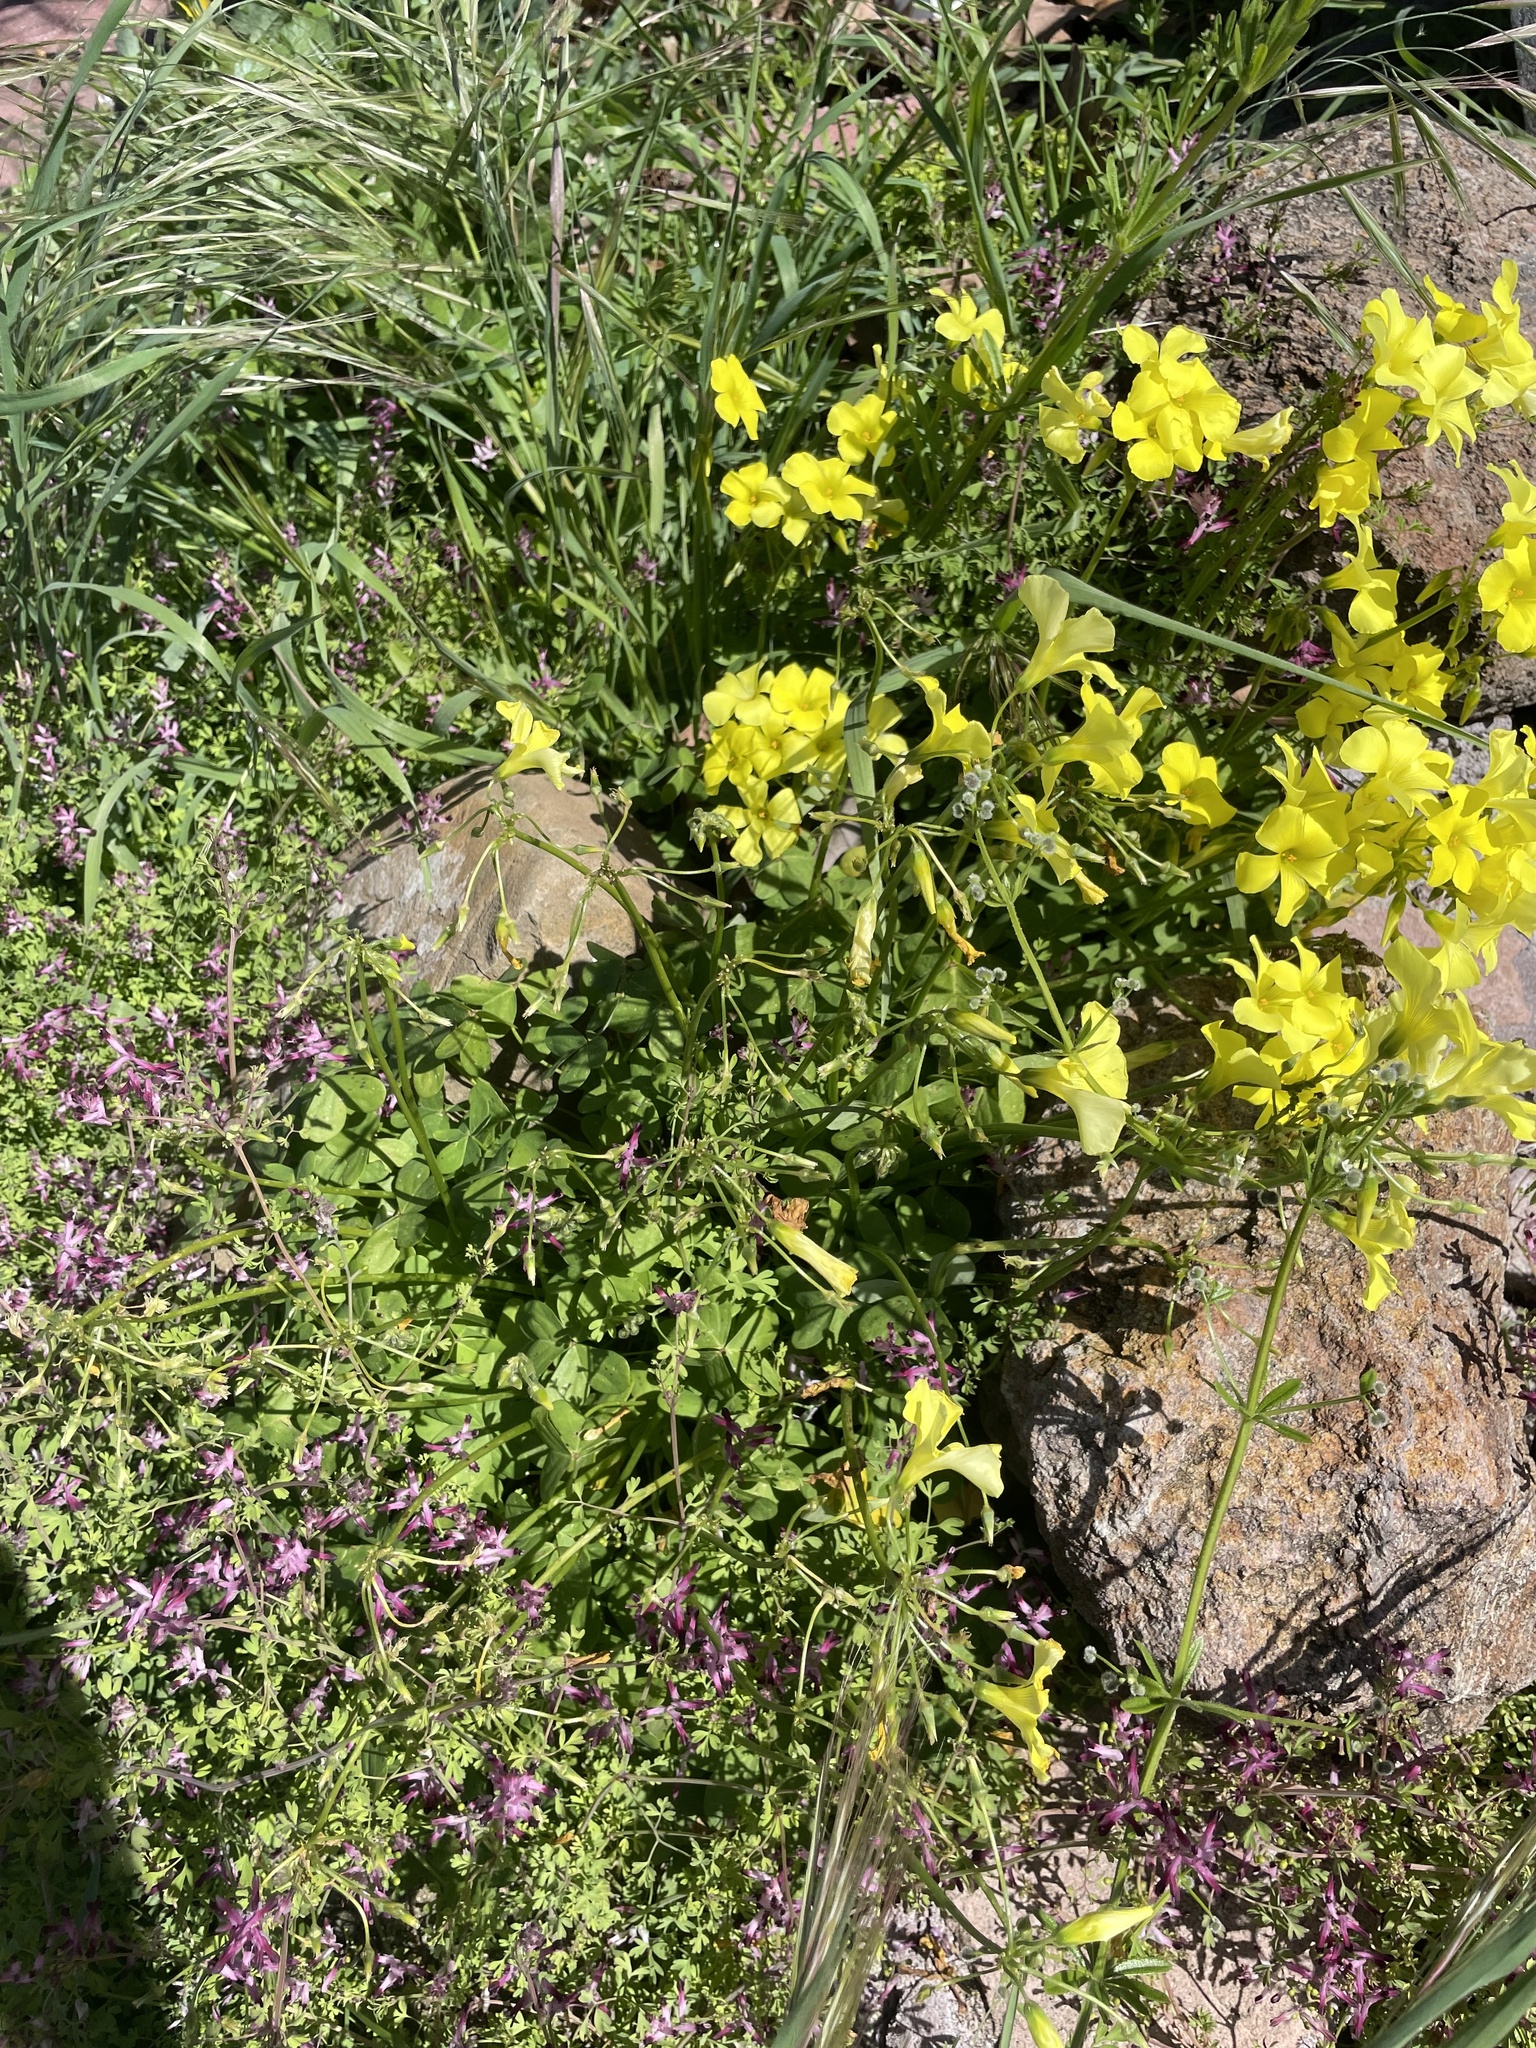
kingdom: Plantae
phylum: Tracheophyta
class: Magnoliopsida
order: Oxalidales
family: Oxalidaceae
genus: Oxalis
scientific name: Oxalis pes-caprae
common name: Bermuda-buttercup
